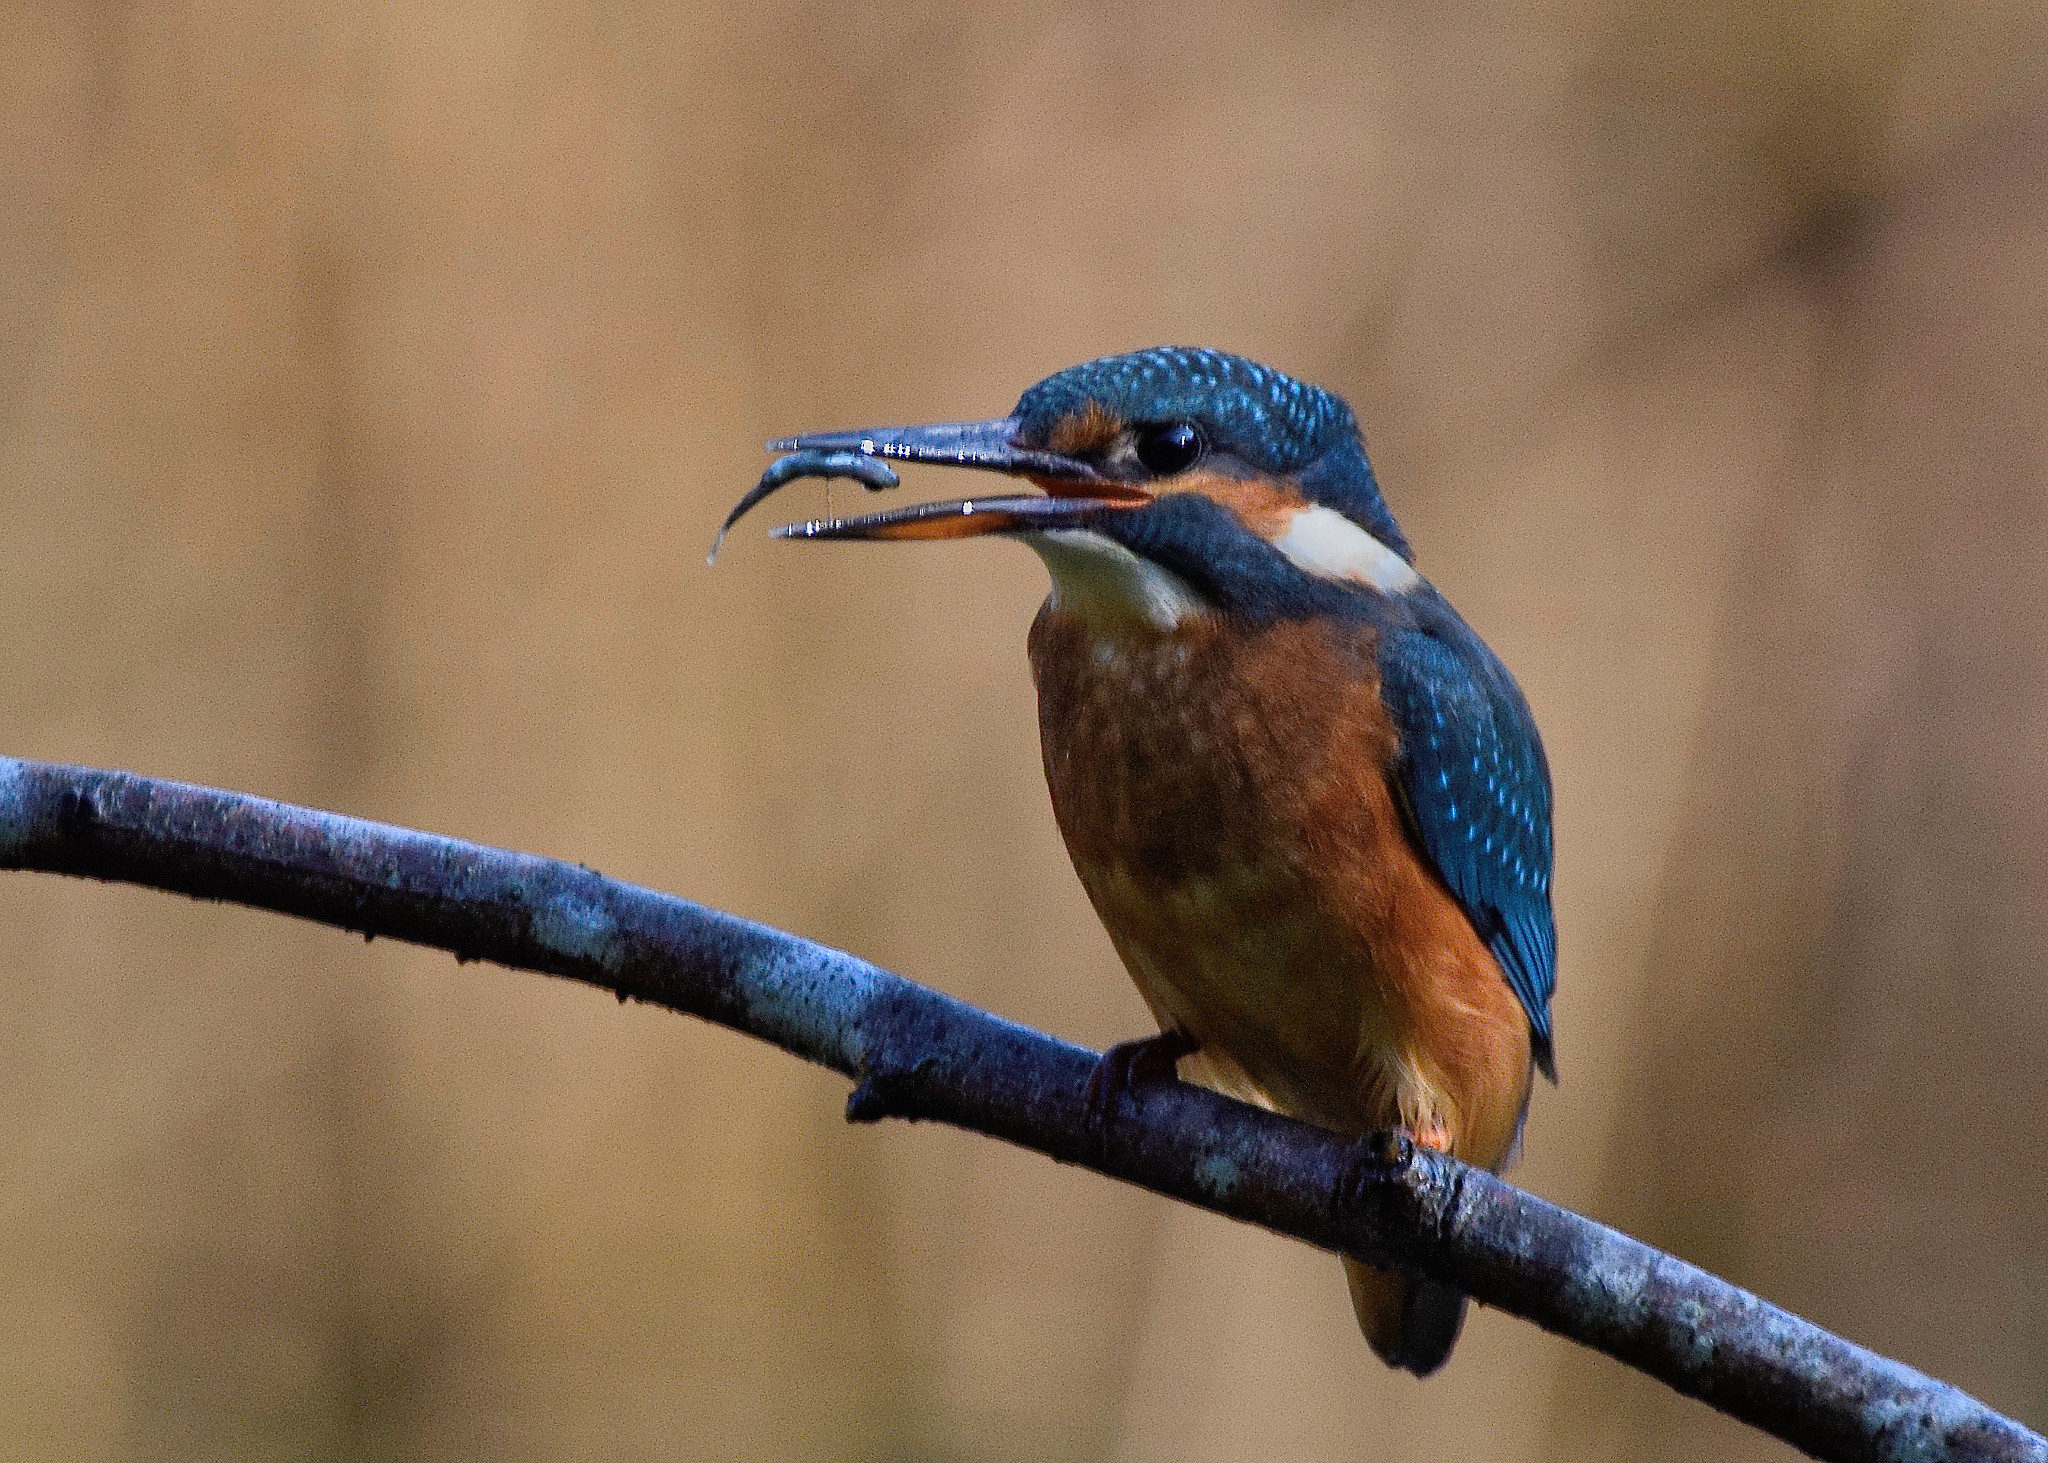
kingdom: Animalia
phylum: Chordata
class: Aves
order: Coraciiformes
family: Alcedinidae
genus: Alcedo
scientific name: Alcedo atthis
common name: Common kingfisher
